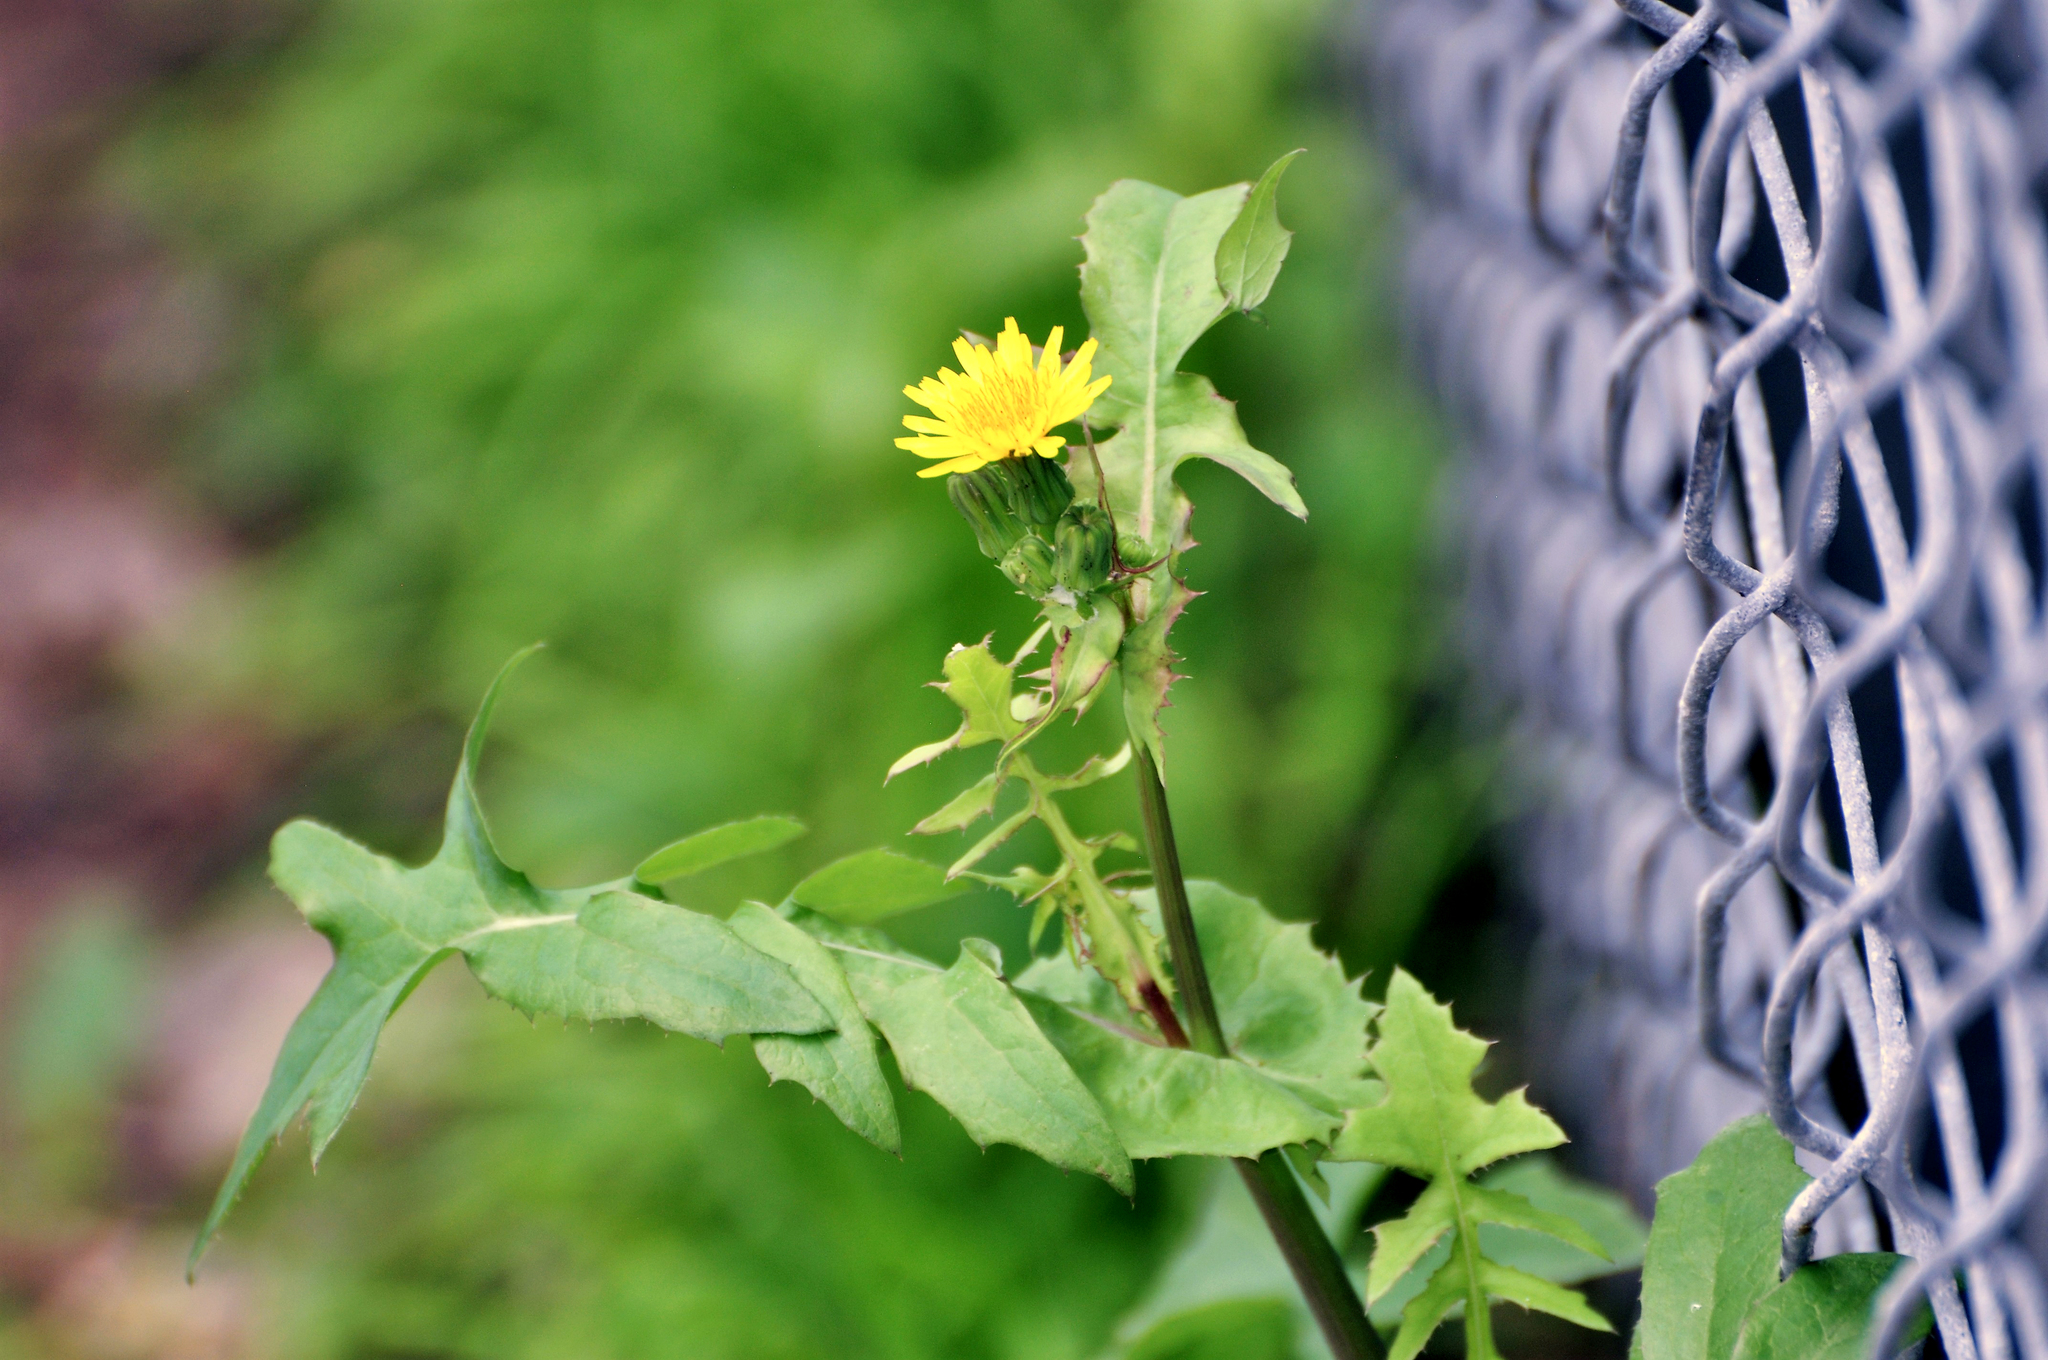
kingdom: Plantae
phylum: Tracheophyta
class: Magnoliopsida
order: Asterales
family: Asteraceae
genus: Sonchus
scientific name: Sonchus oleraceus
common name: Common sowthistle
